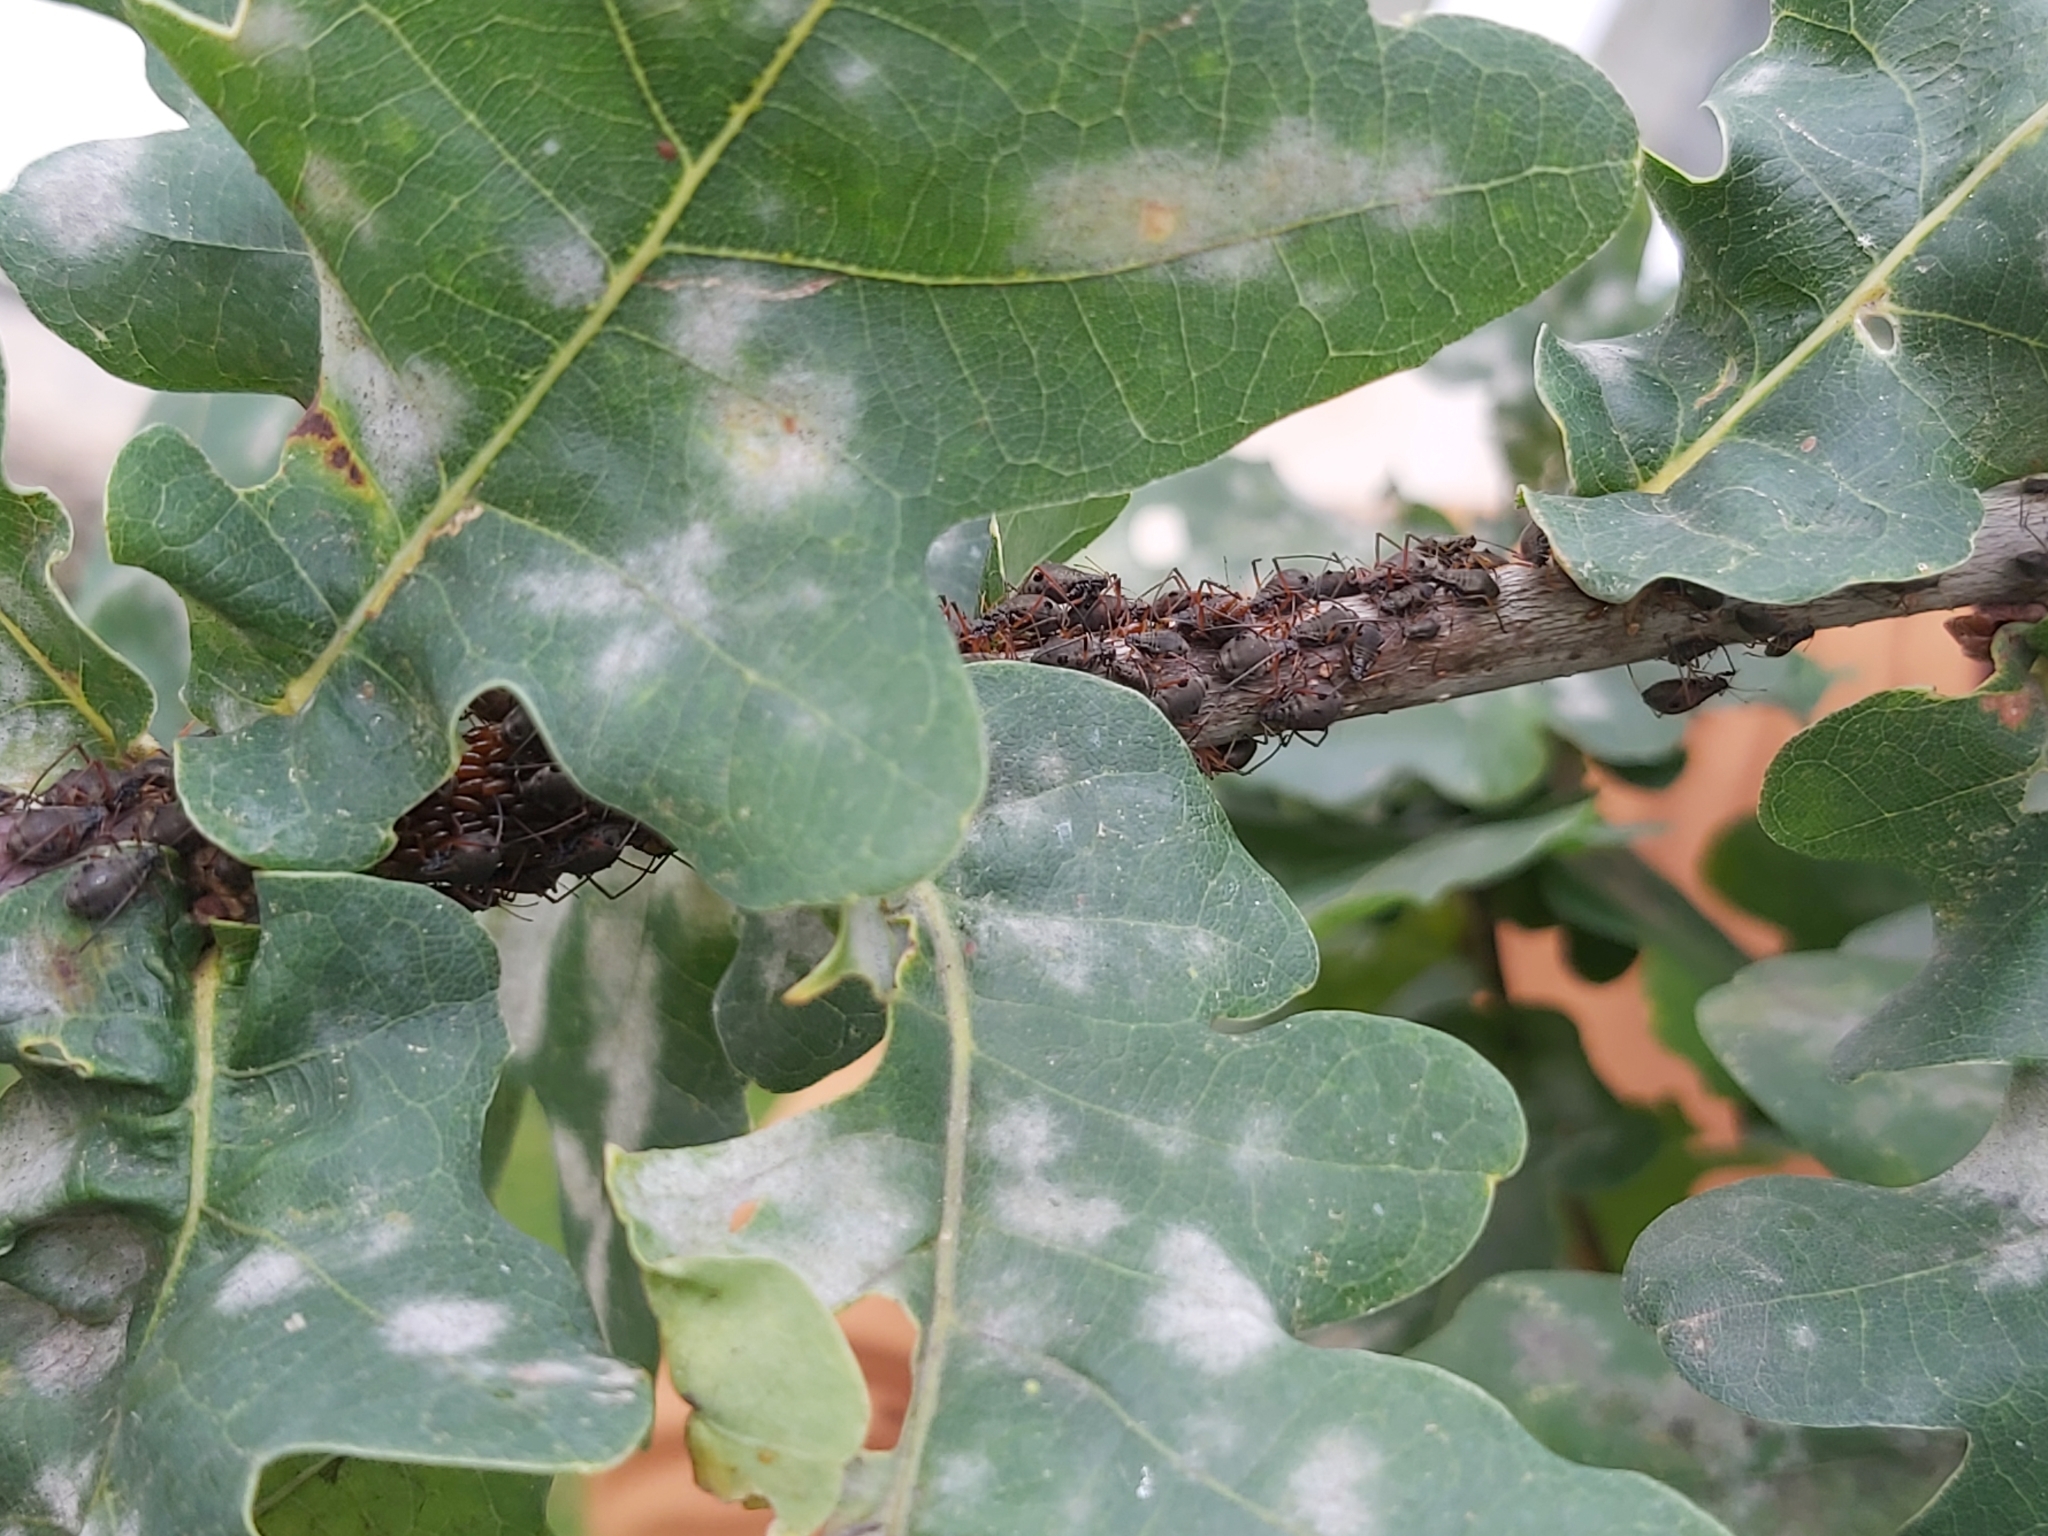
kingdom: Animalia
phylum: Arthropoda
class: Insecta
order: Hemiptera
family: Aphididae
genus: Lachnus
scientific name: Lachnus roboris
